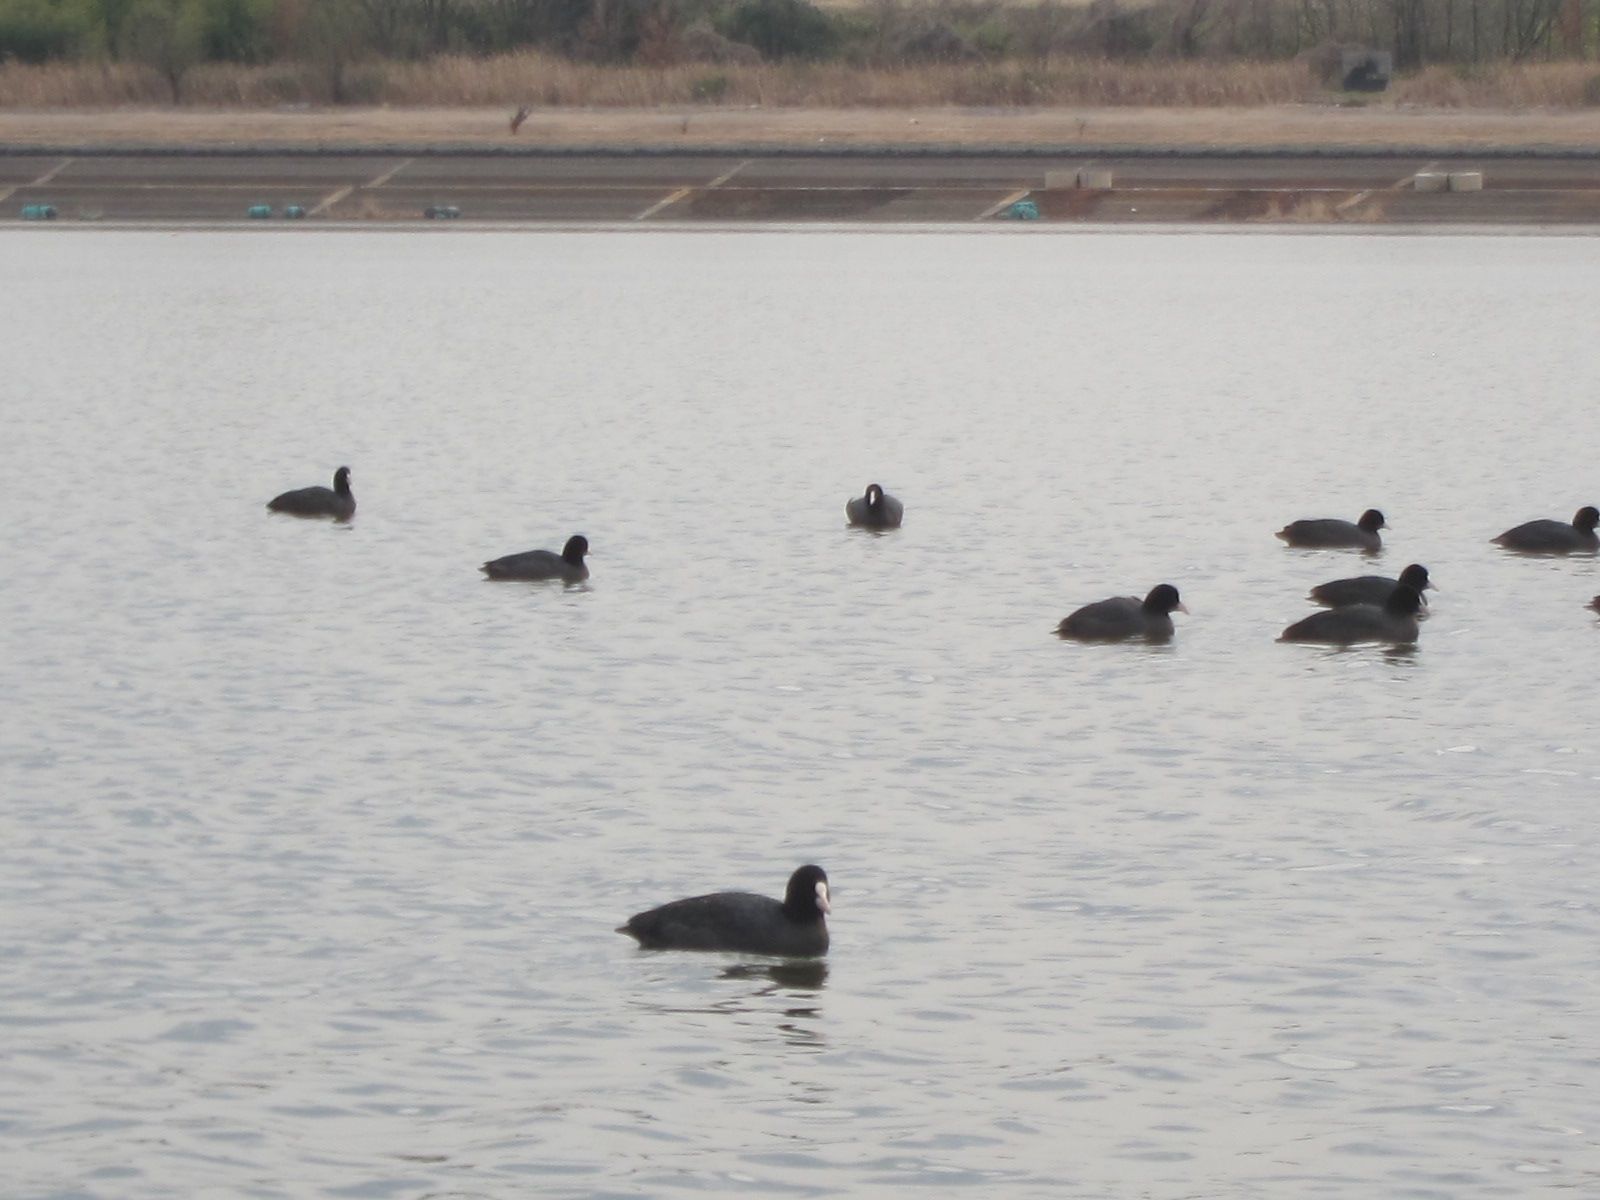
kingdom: Animalia
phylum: Chordata
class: Aves
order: Gruiformes
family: Rallidae
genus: Fulica
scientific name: Fulica atra
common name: Eurasian coot
